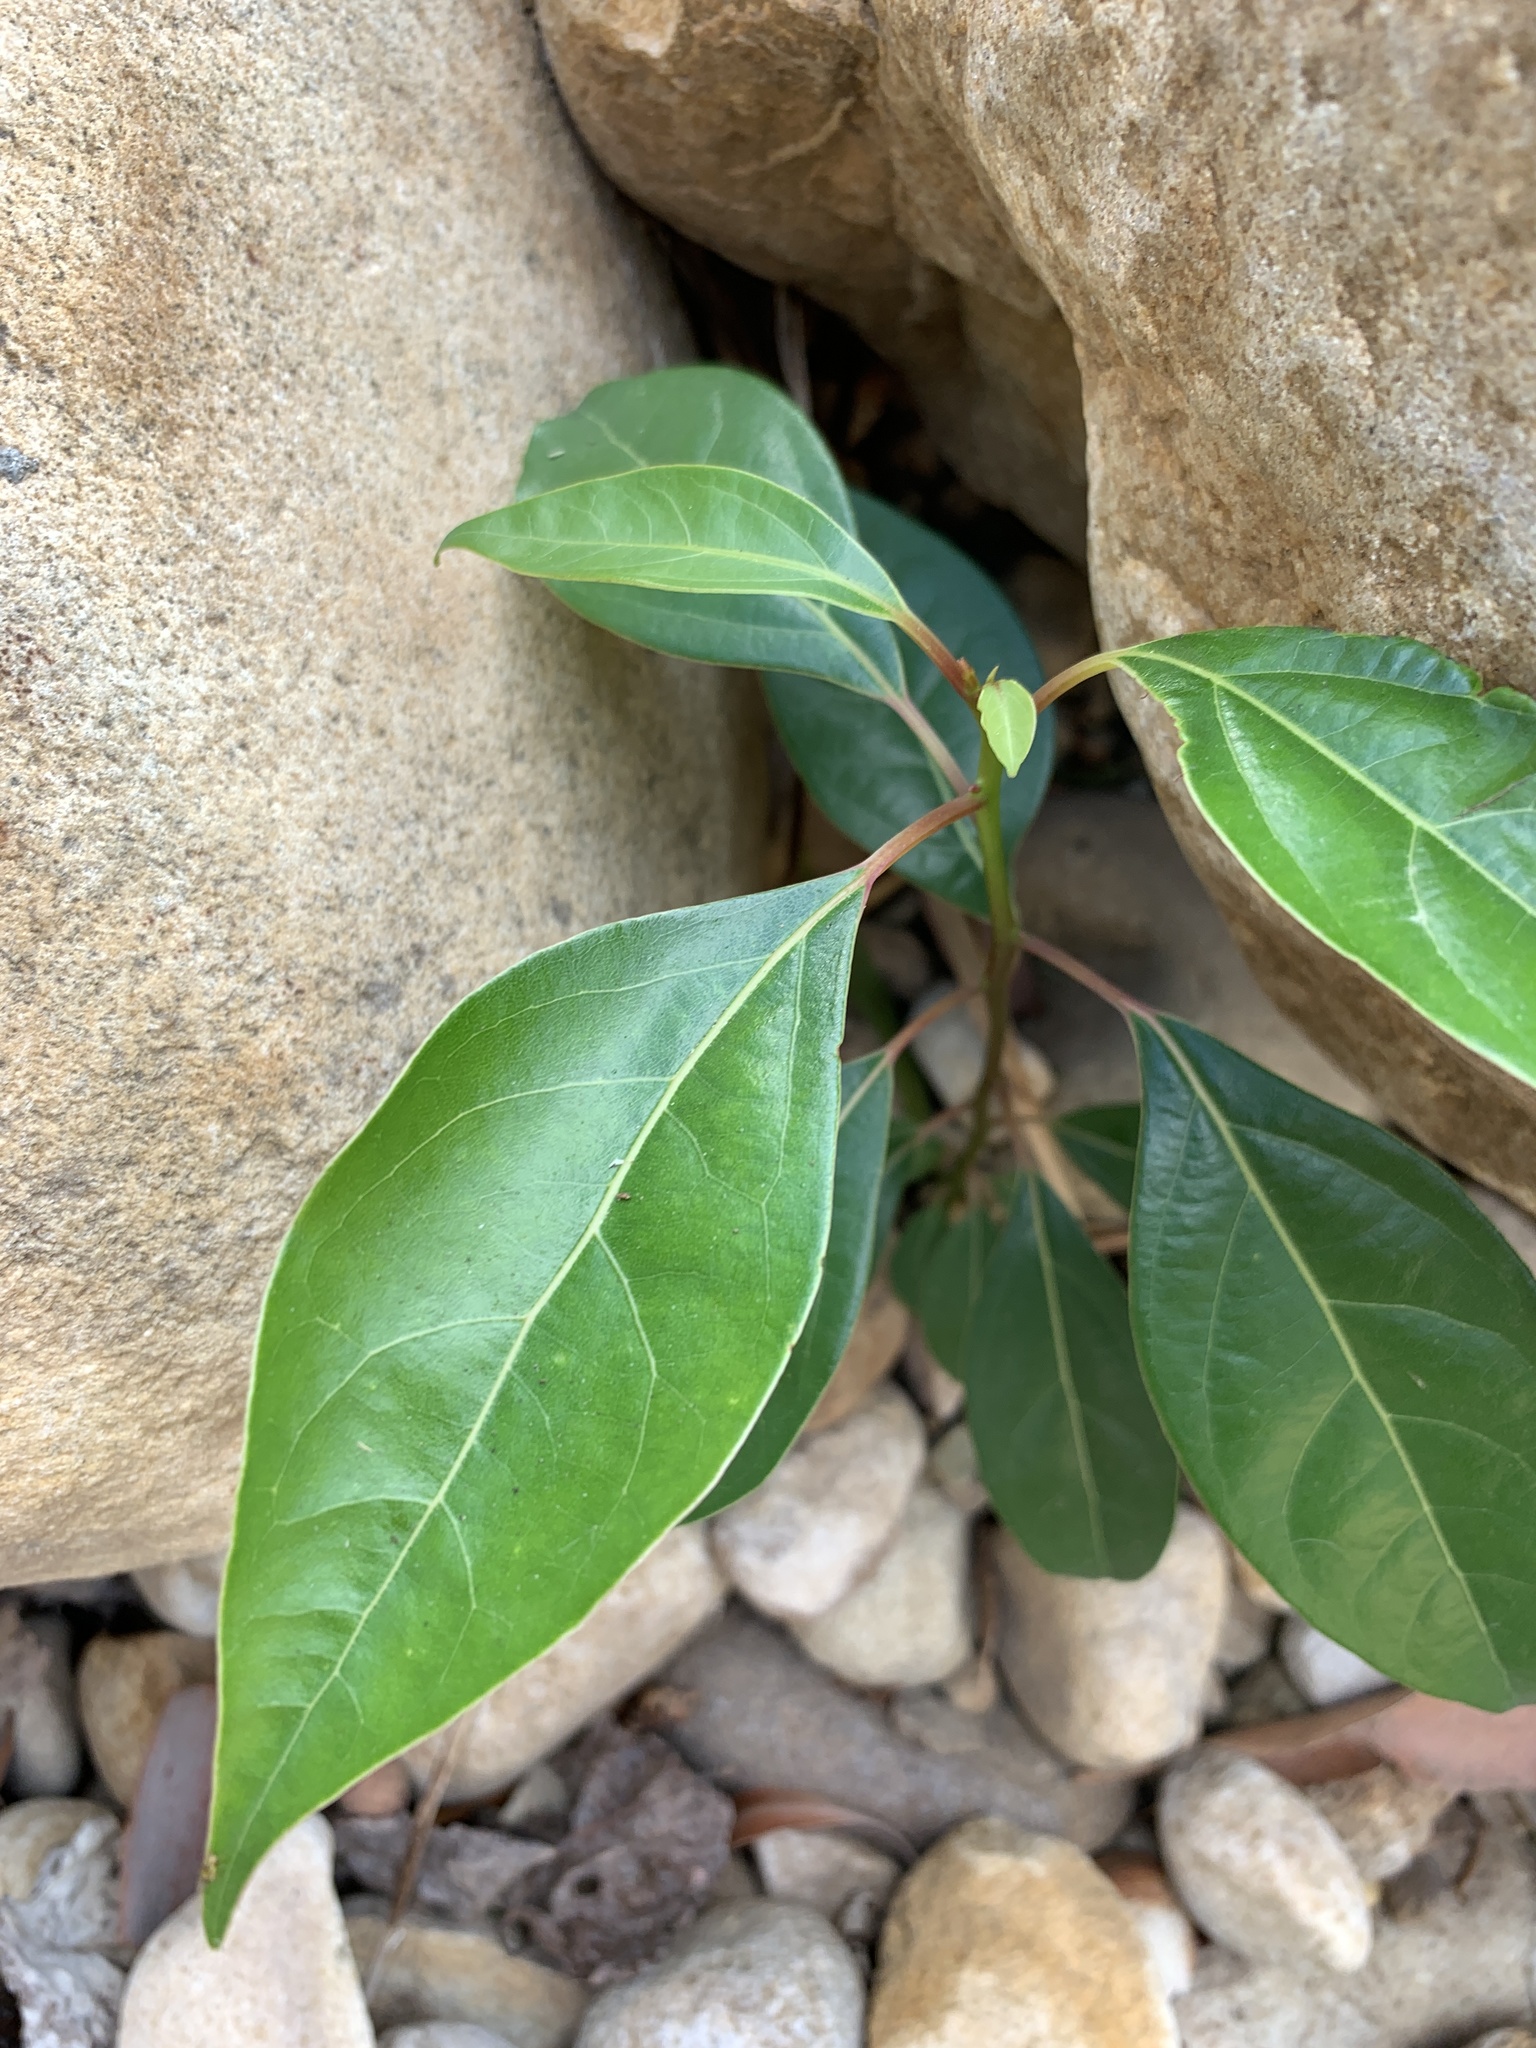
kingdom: Plantae
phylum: Tracheophyta
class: Magnoliopsida
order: Laurales
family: Lauraceae
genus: Cinnamomum
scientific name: Cinnamomum camphora
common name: Camphortree
